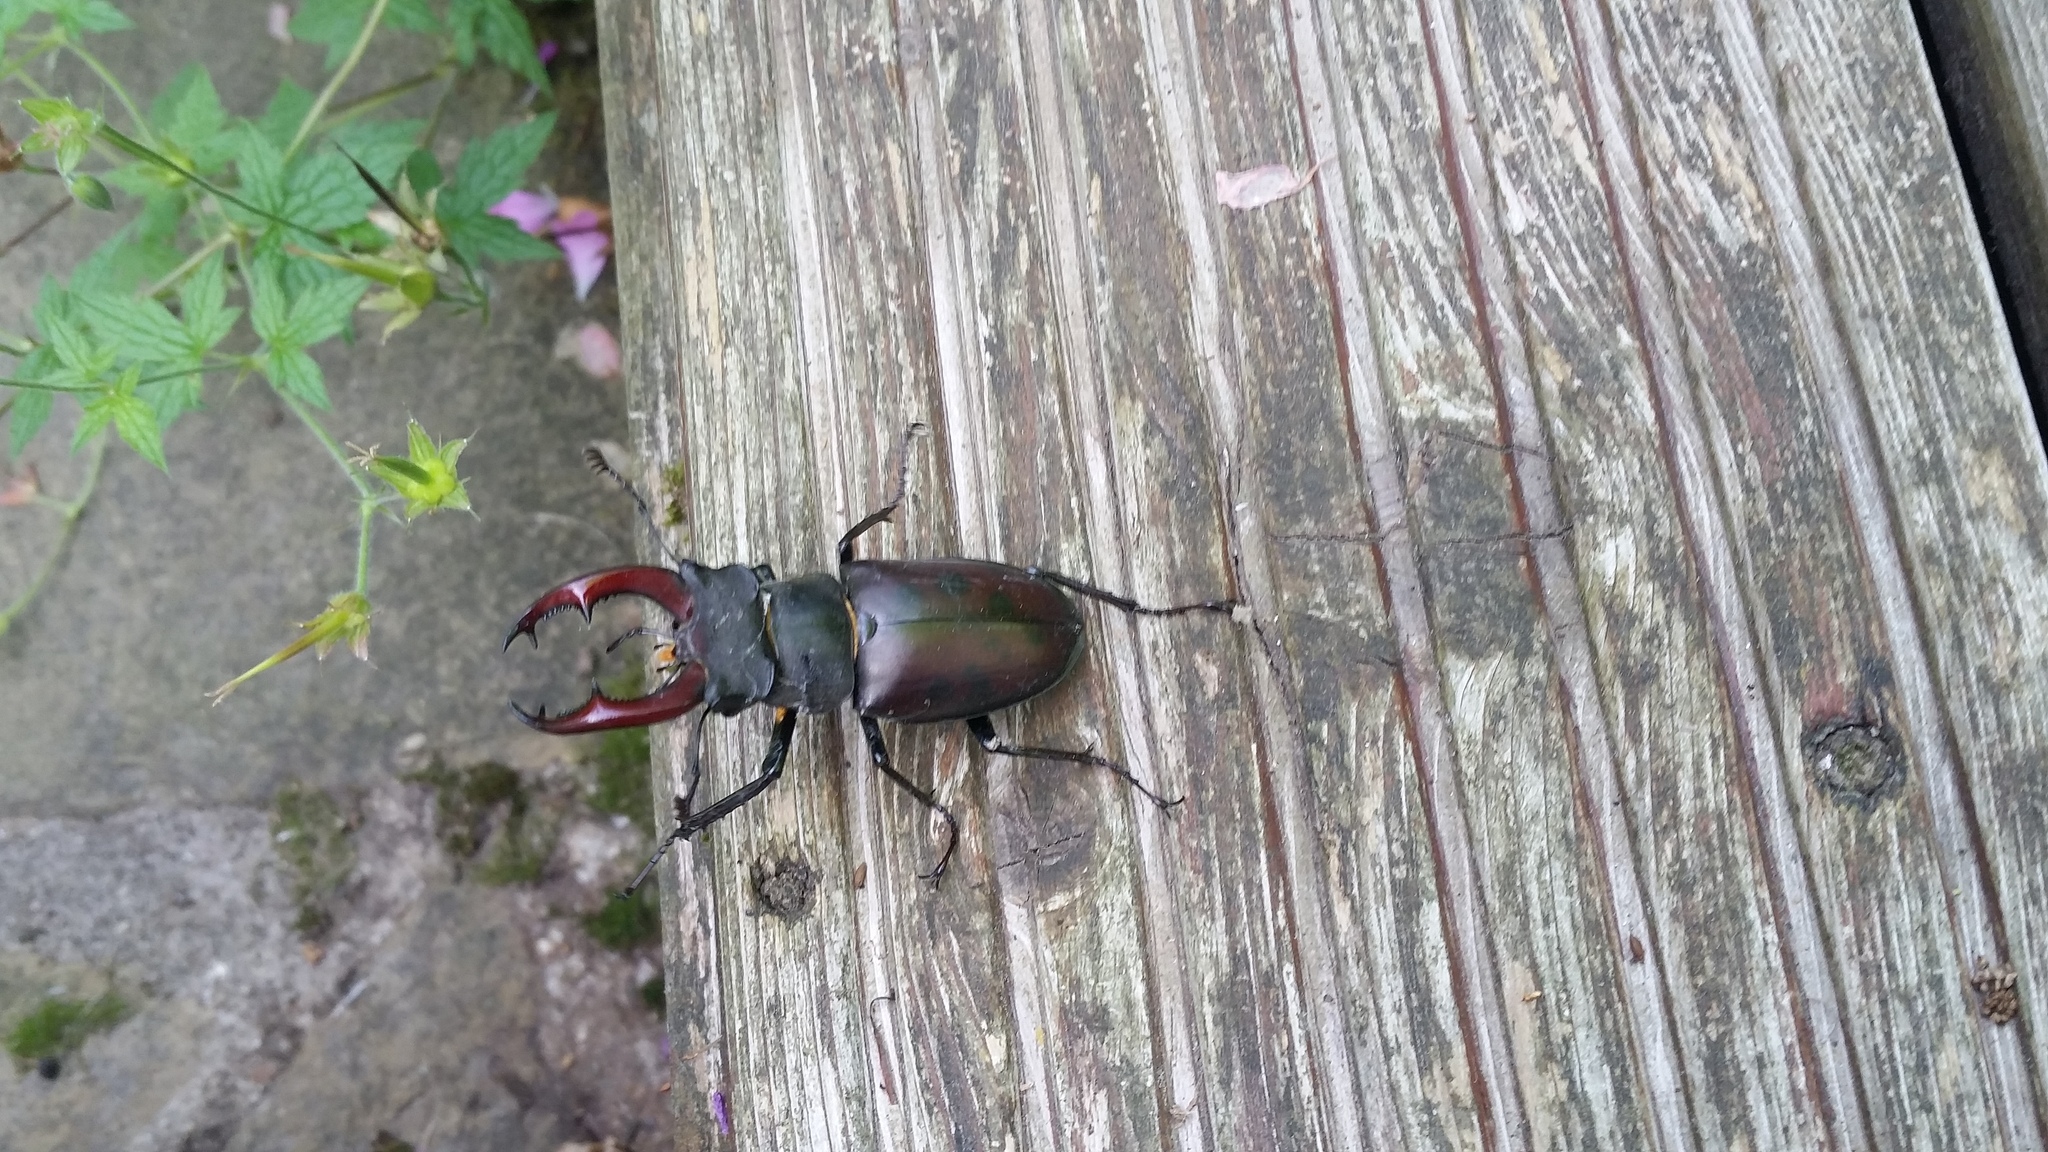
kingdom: Animalia
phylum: Arthropoda
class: Insecta
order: Coleoptera
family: Lucanidae
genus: Lucanus
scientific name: Lucanus cervus
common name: Stag beetle
